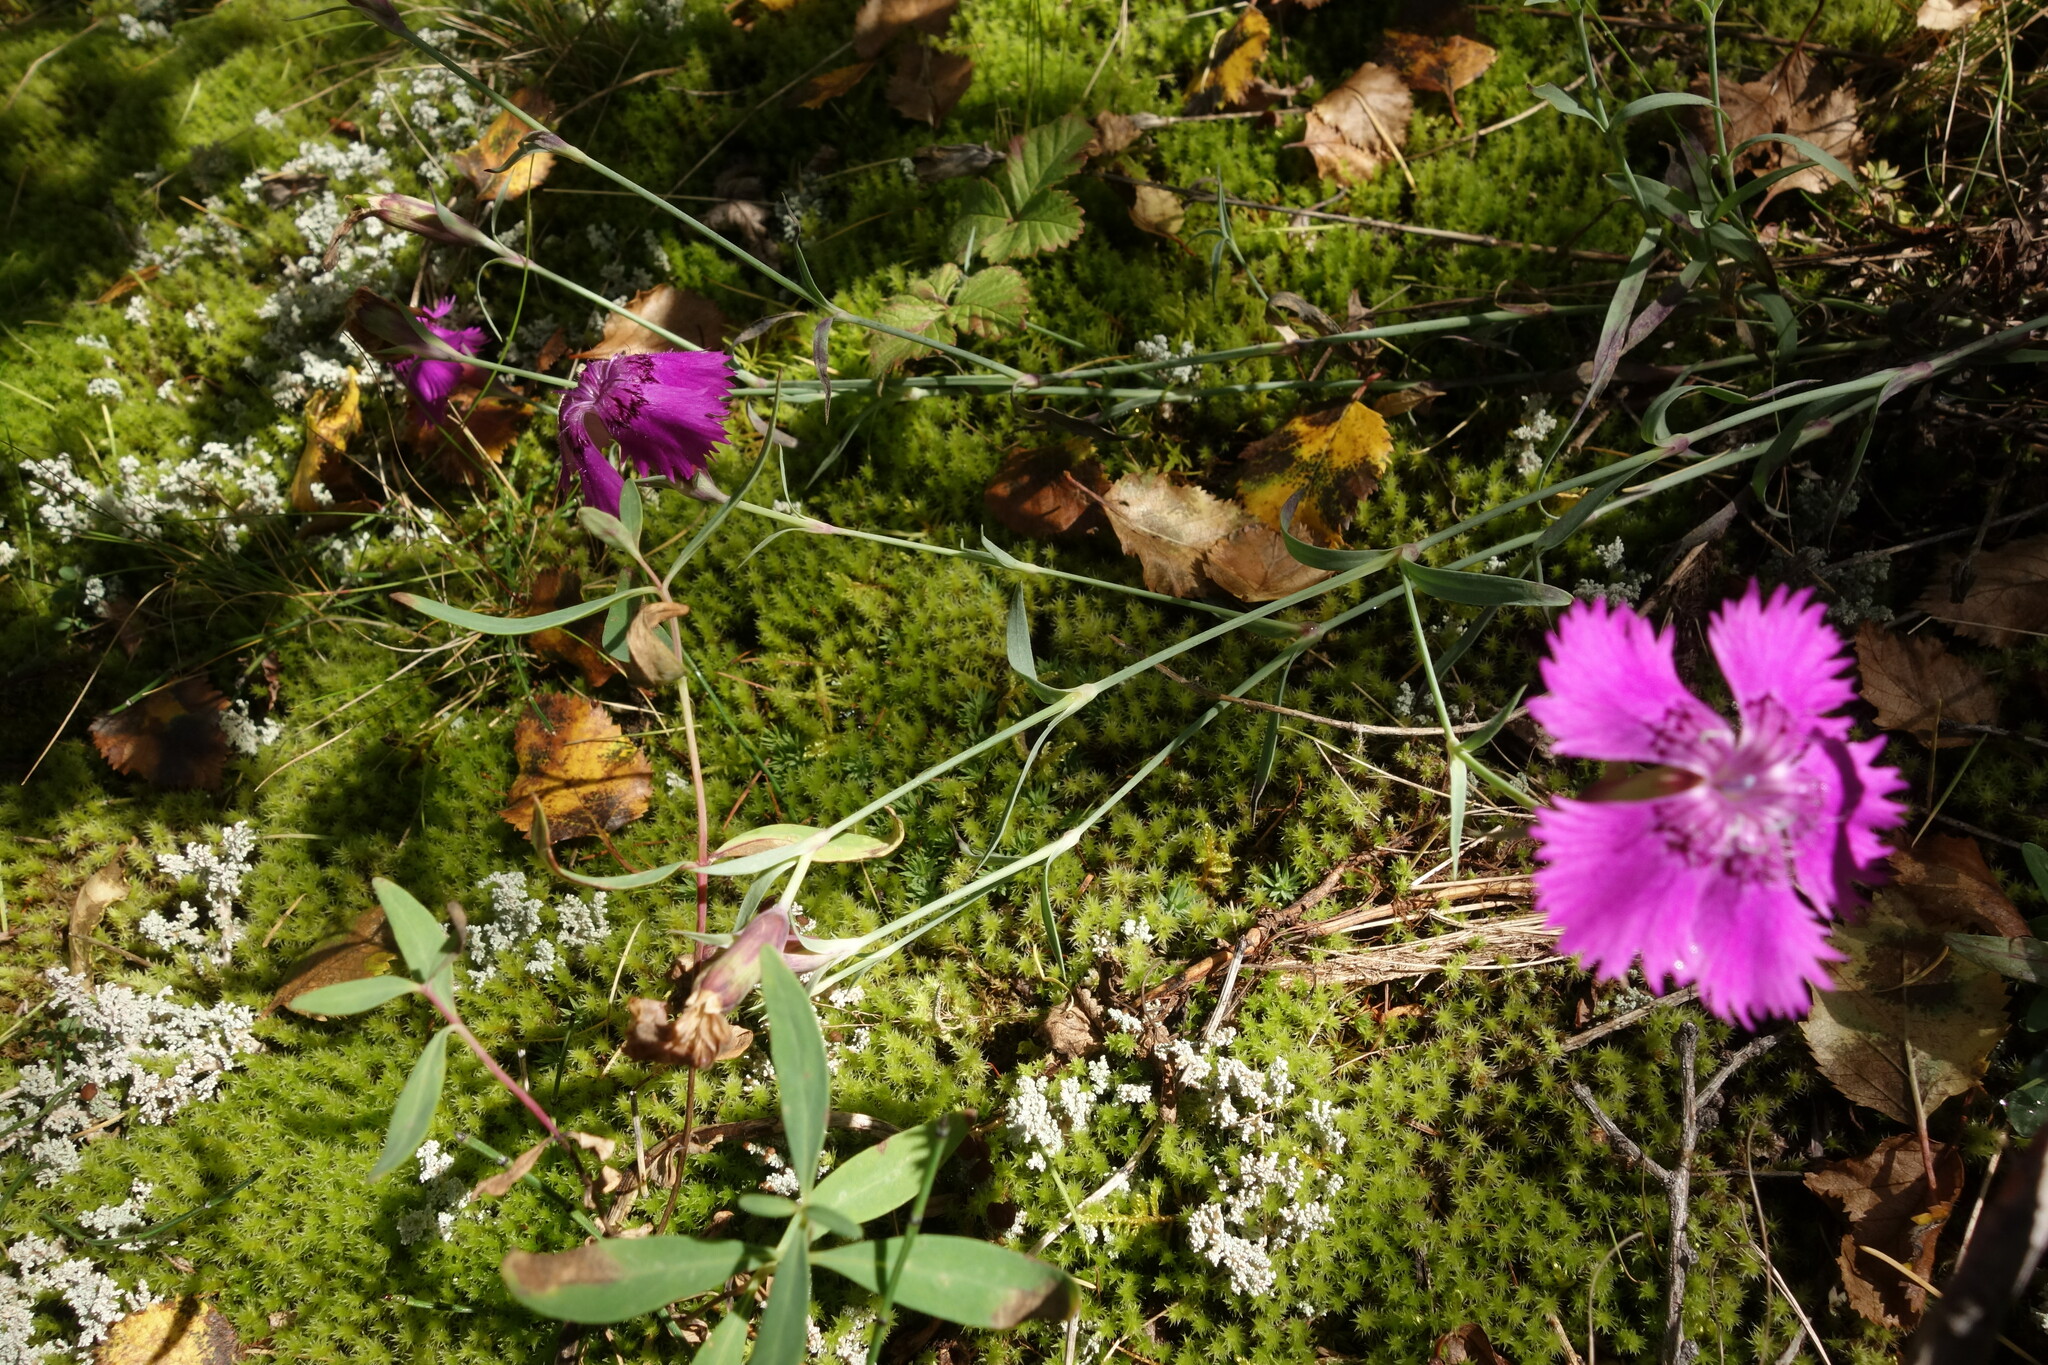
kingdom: Plantae
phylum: Tracheophyta
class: Magnoliopsida
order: Caryophyllales
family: Caryophyllaceae
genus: Dianthus
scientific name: Dianthus chinensis
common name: Rainbow pink
